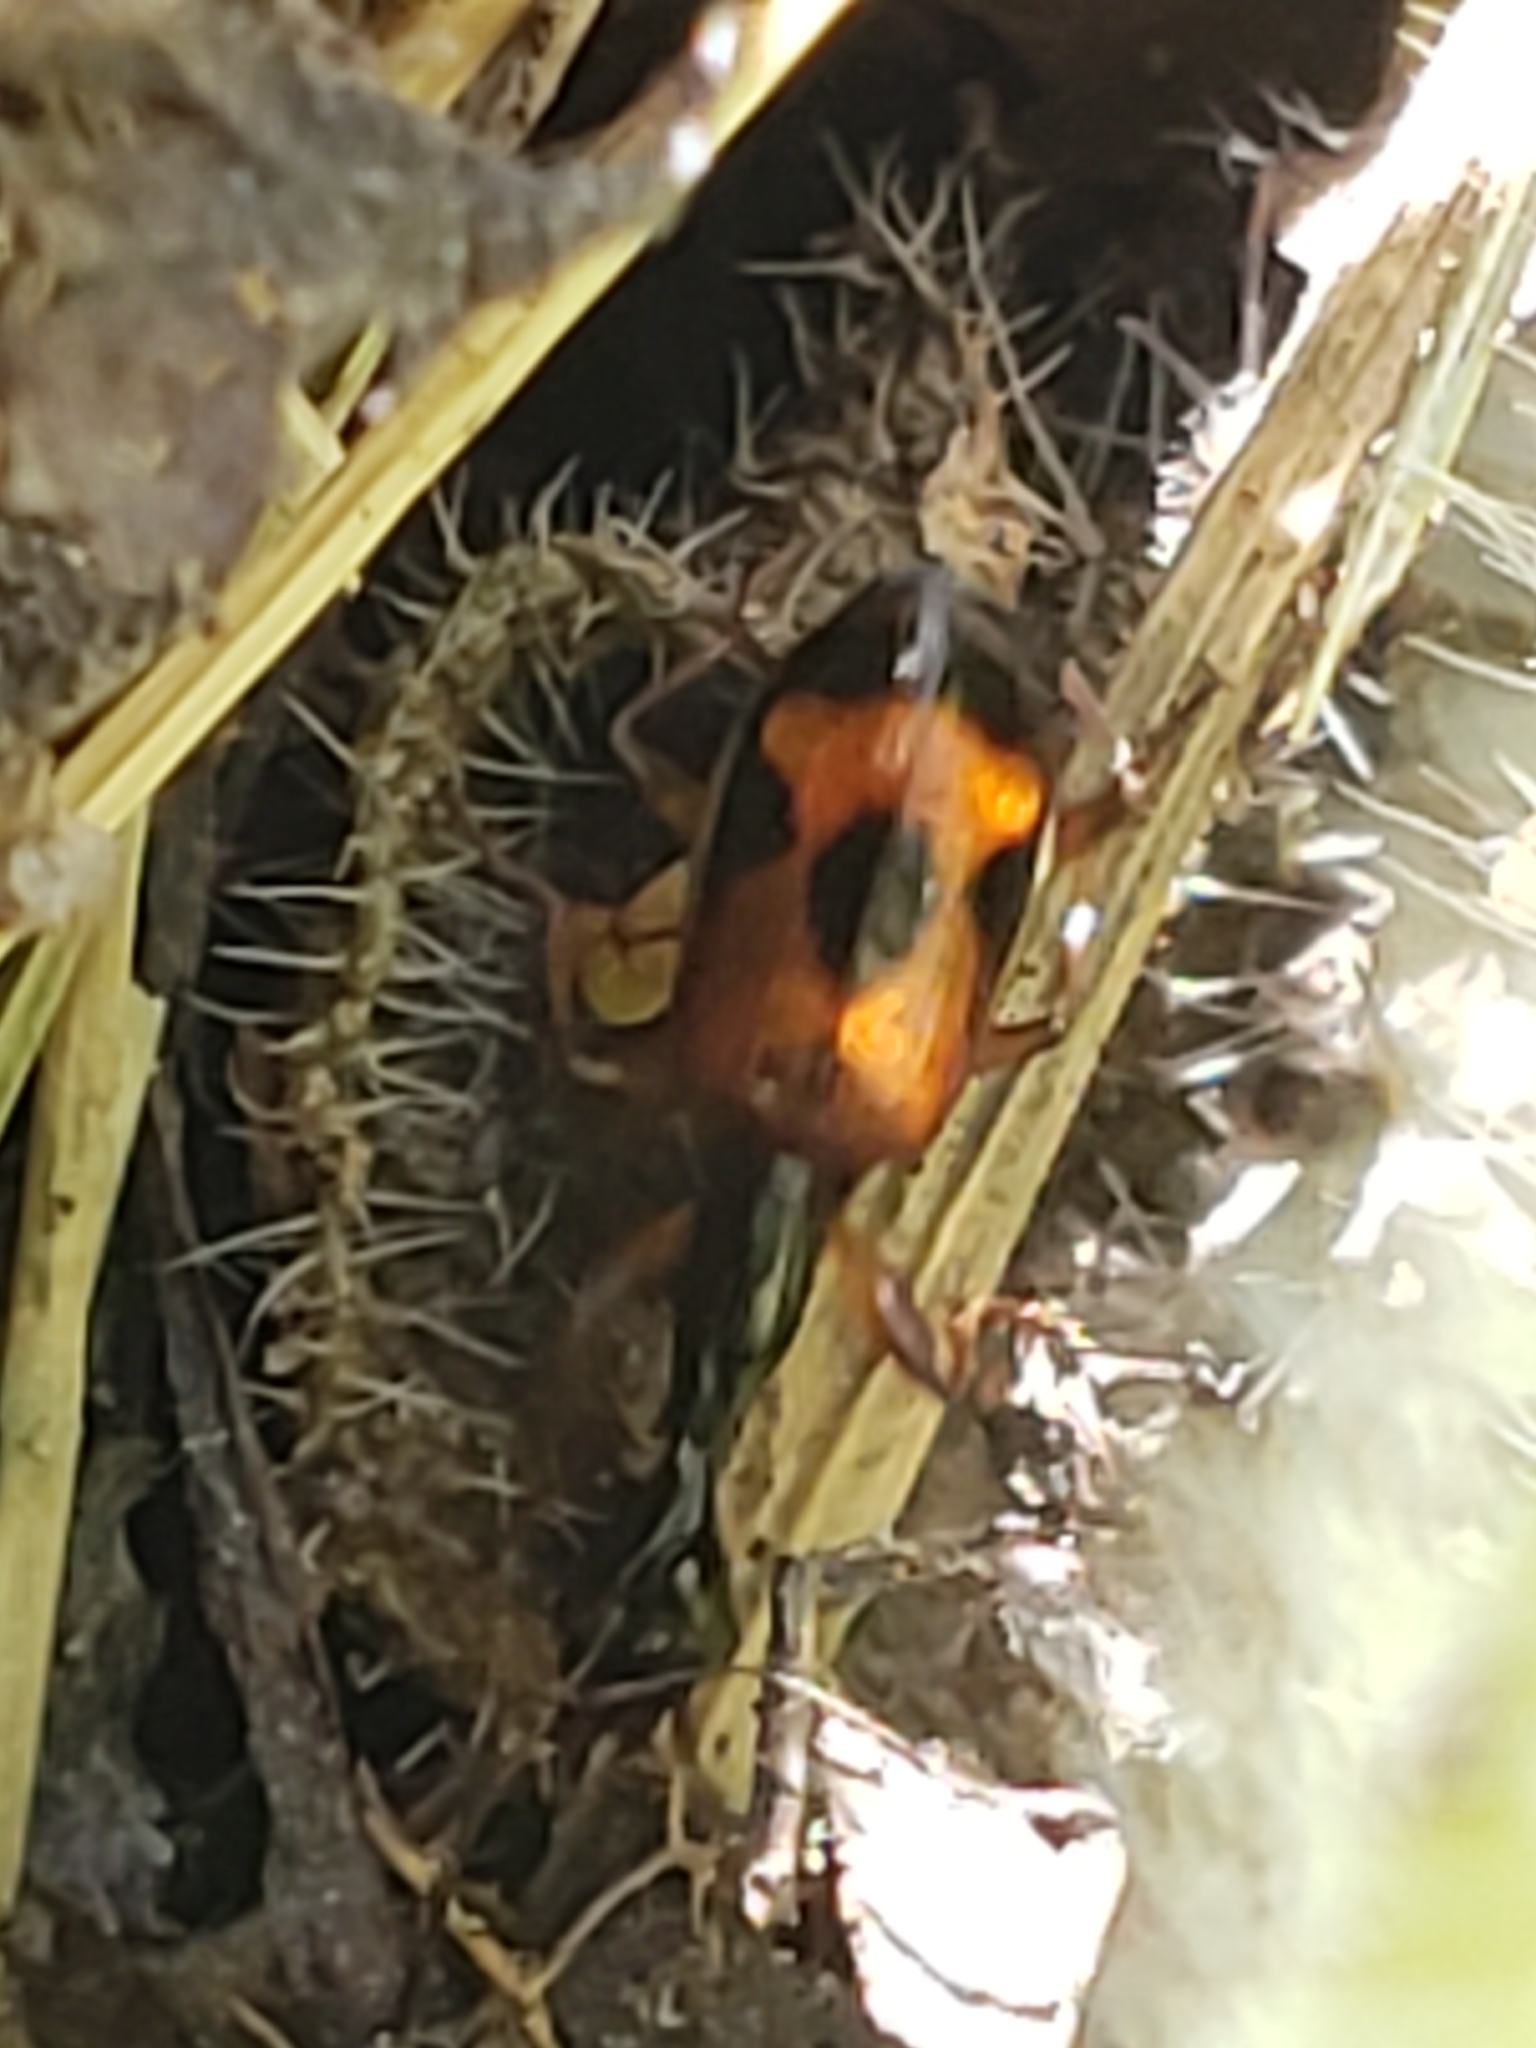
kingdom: Animalia
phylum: Arthropoda
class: Insecta
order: Coleoptera
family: Carabidae
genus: Colliuris
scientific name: Colliuris pensylvanica
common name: Long-necked ground beetle
